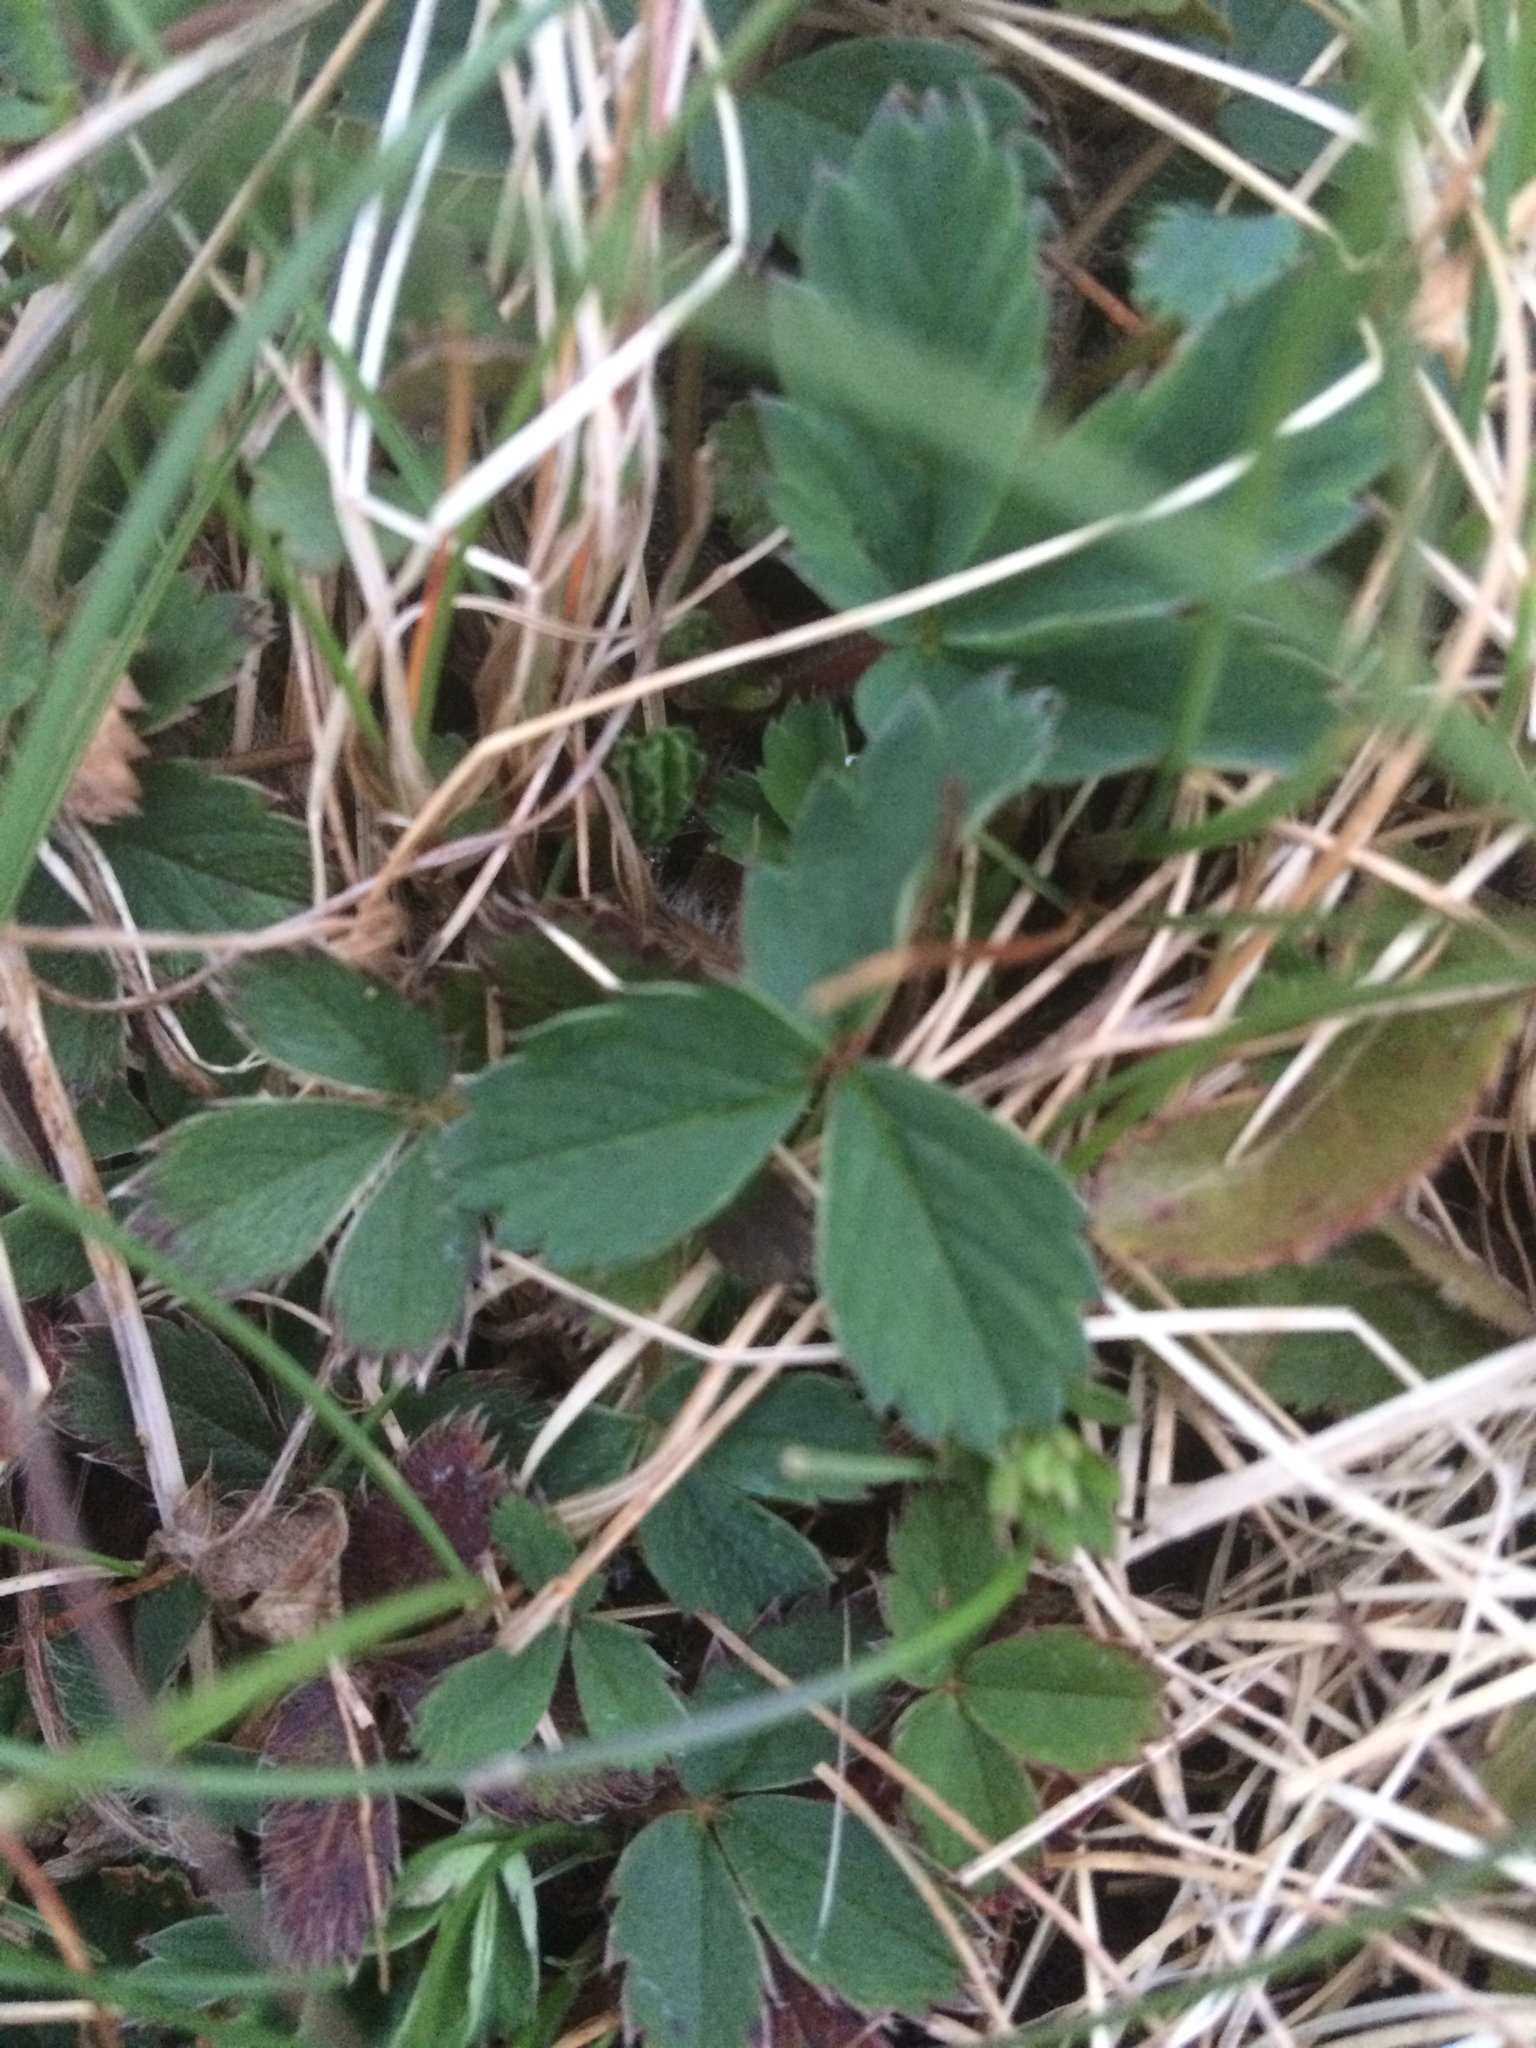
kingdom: Plantae
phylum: Tracheophyta
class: Magnoliopsida
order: Rosales
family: Rosaceae
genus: Fragaria
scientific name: Fragaria virginiana
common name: Thickleaved wild strawberry
